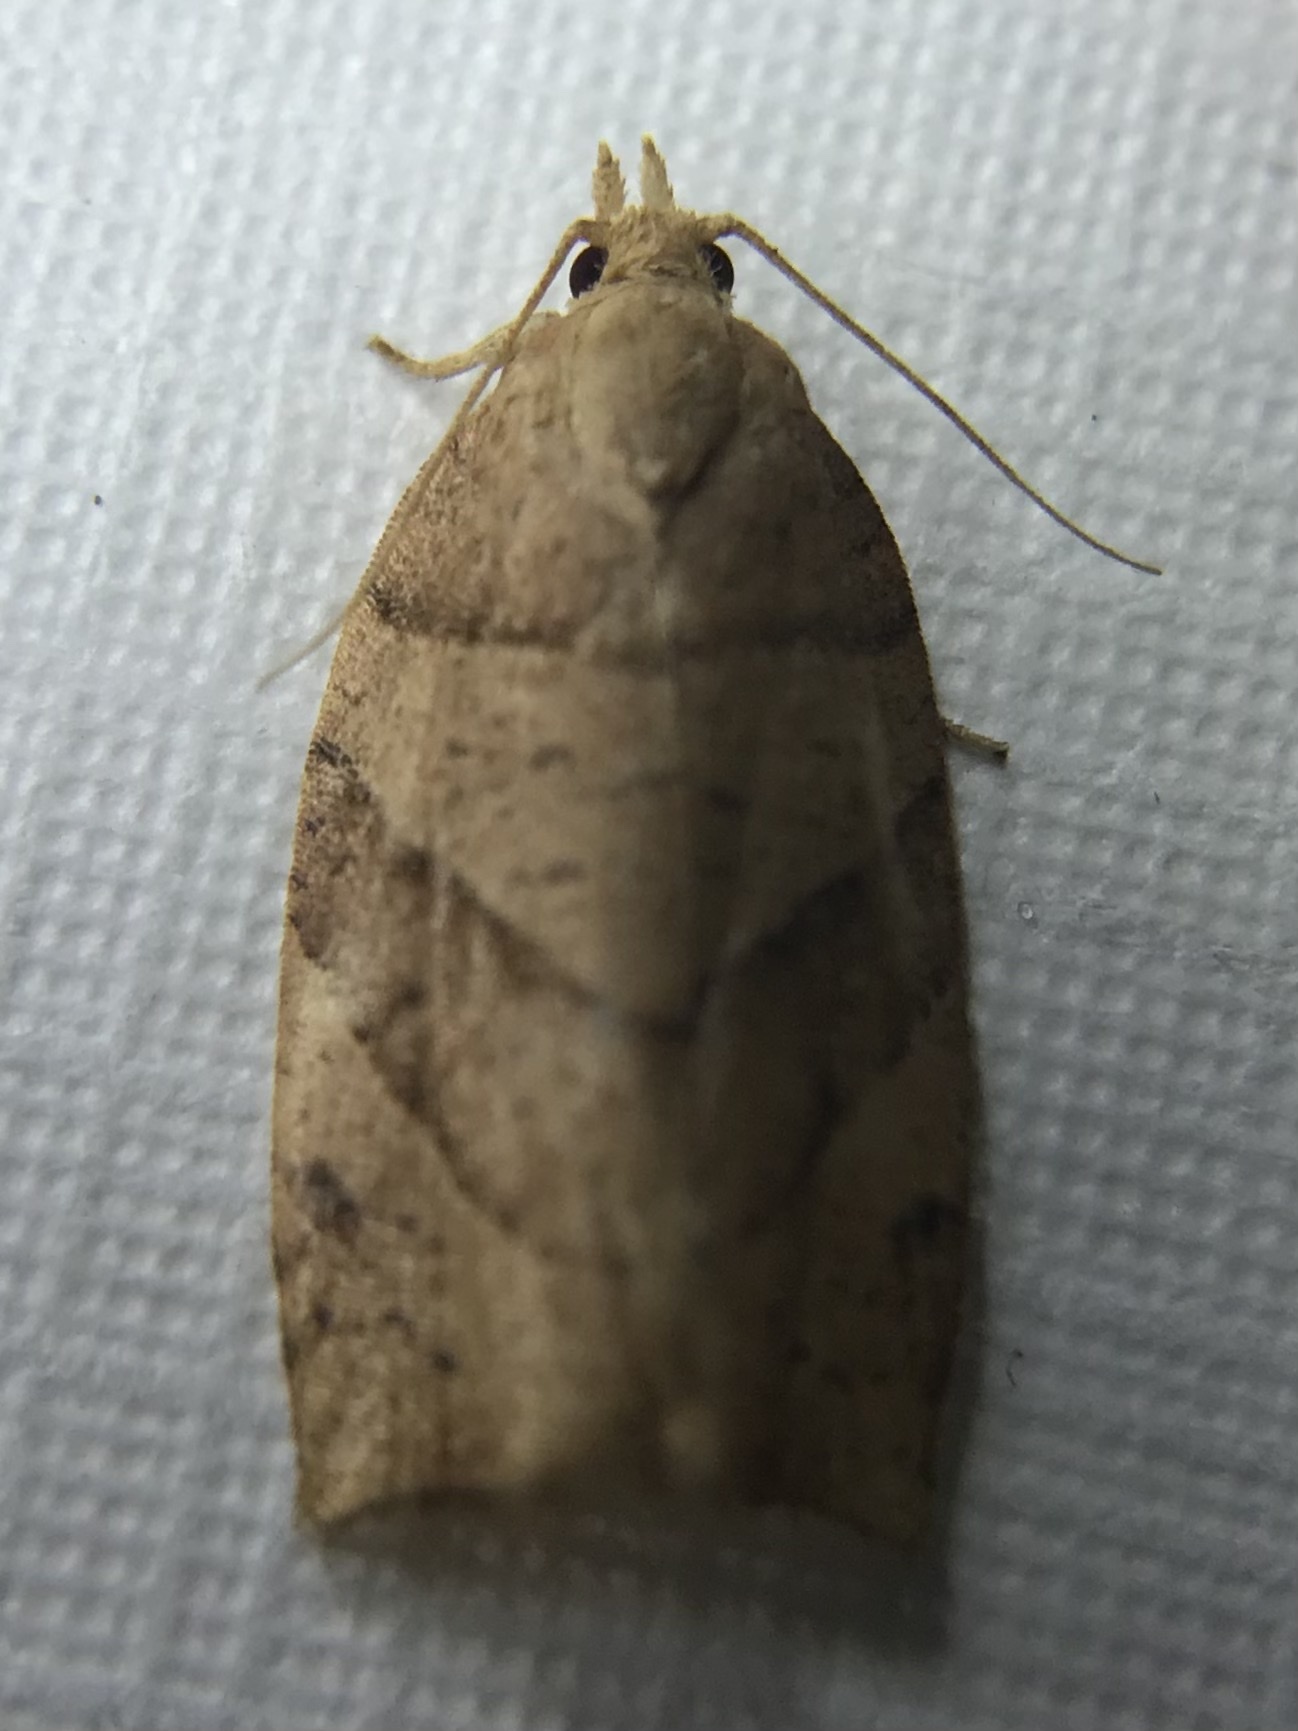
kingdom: Animalia
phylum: Arthropoda
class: Insecta
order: Lepidoptera
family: Tortricidae
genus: Pandemis
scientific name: Pandemis lamprosana
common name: Woodgrain leafroller moth
